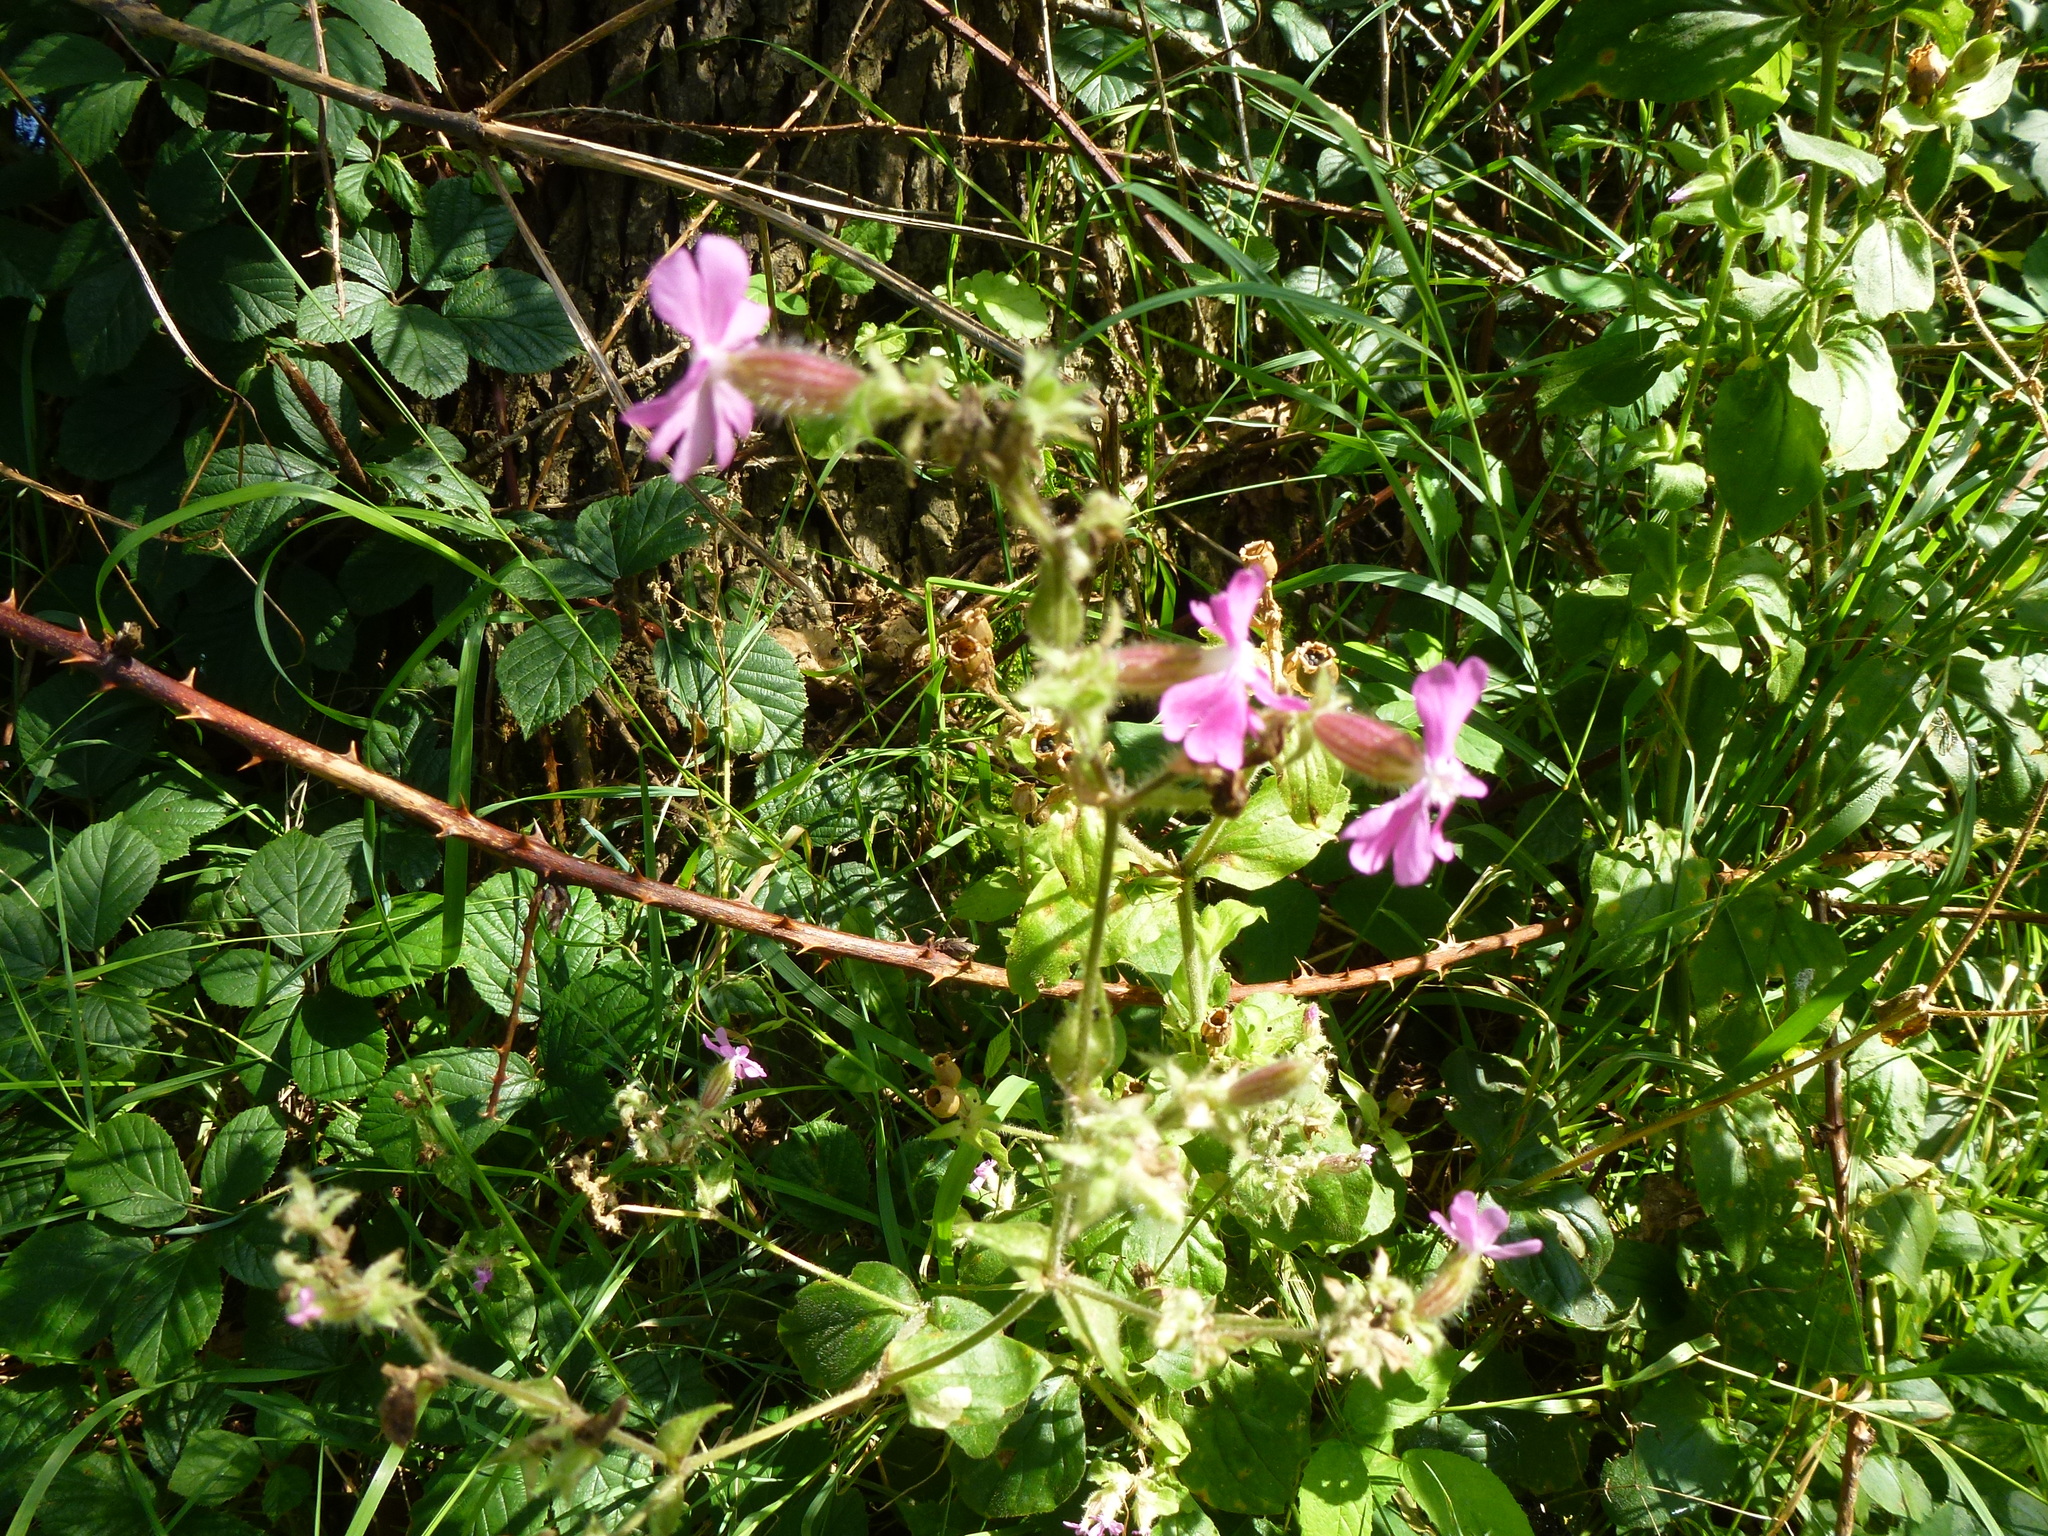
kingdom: Plantae
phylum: Tracheophyta
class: Magnoliopsida
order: Caryophyllales
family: Caryophyllaceae
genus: Silene
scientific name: Silene dioica
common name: Red campion
